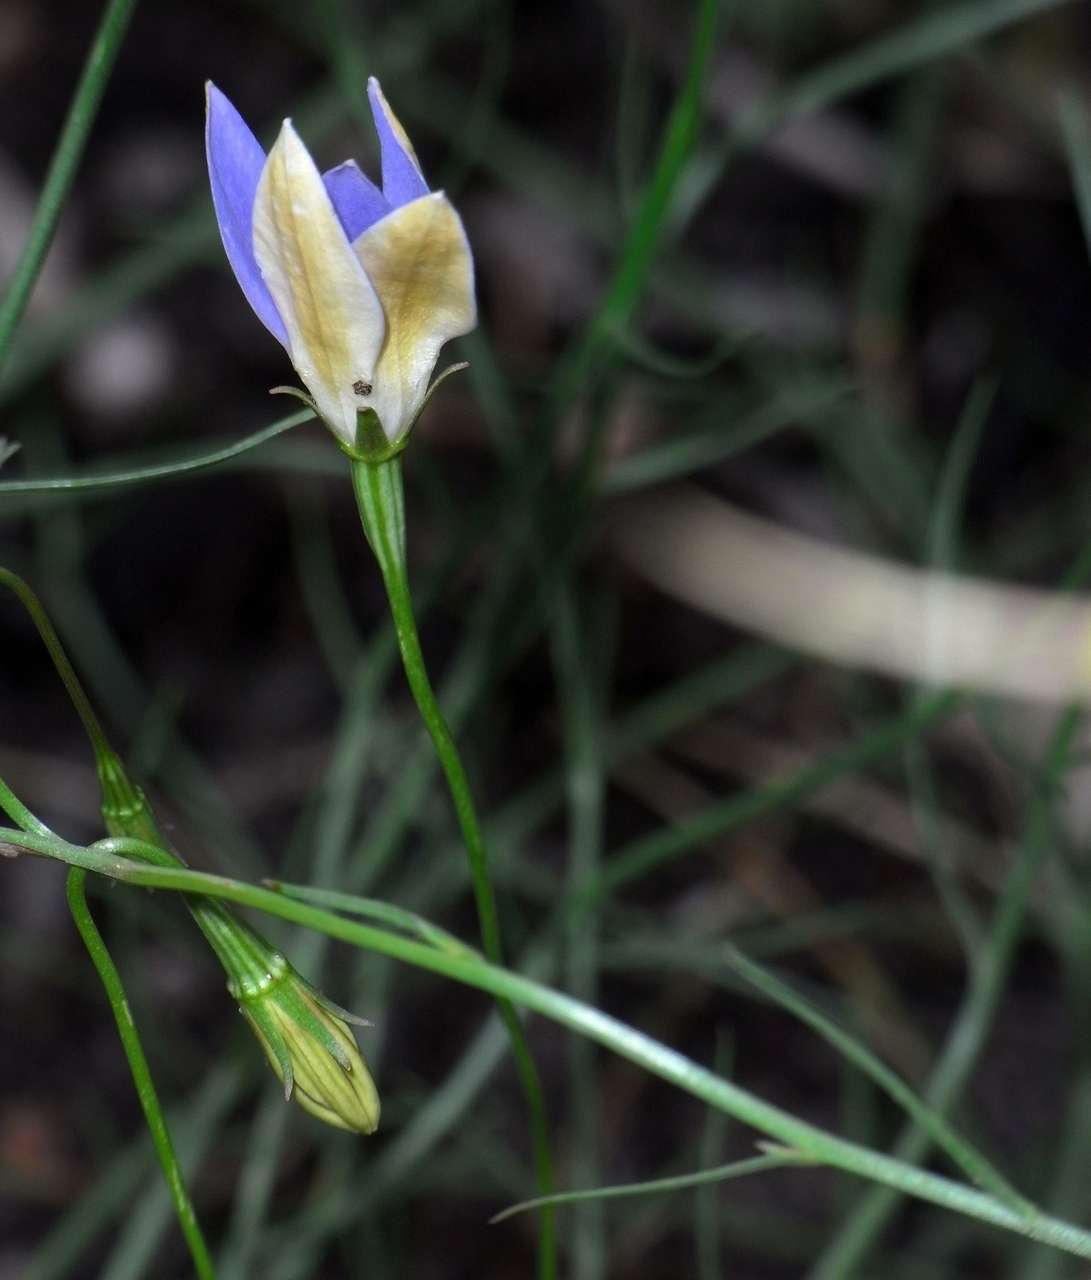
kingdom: Plantae
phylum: Tracheophyta
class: Magnoliopsida
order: Asterales
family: Campanulaceae
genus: Wahlenbergia
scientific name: Wahlenbergia luteola
